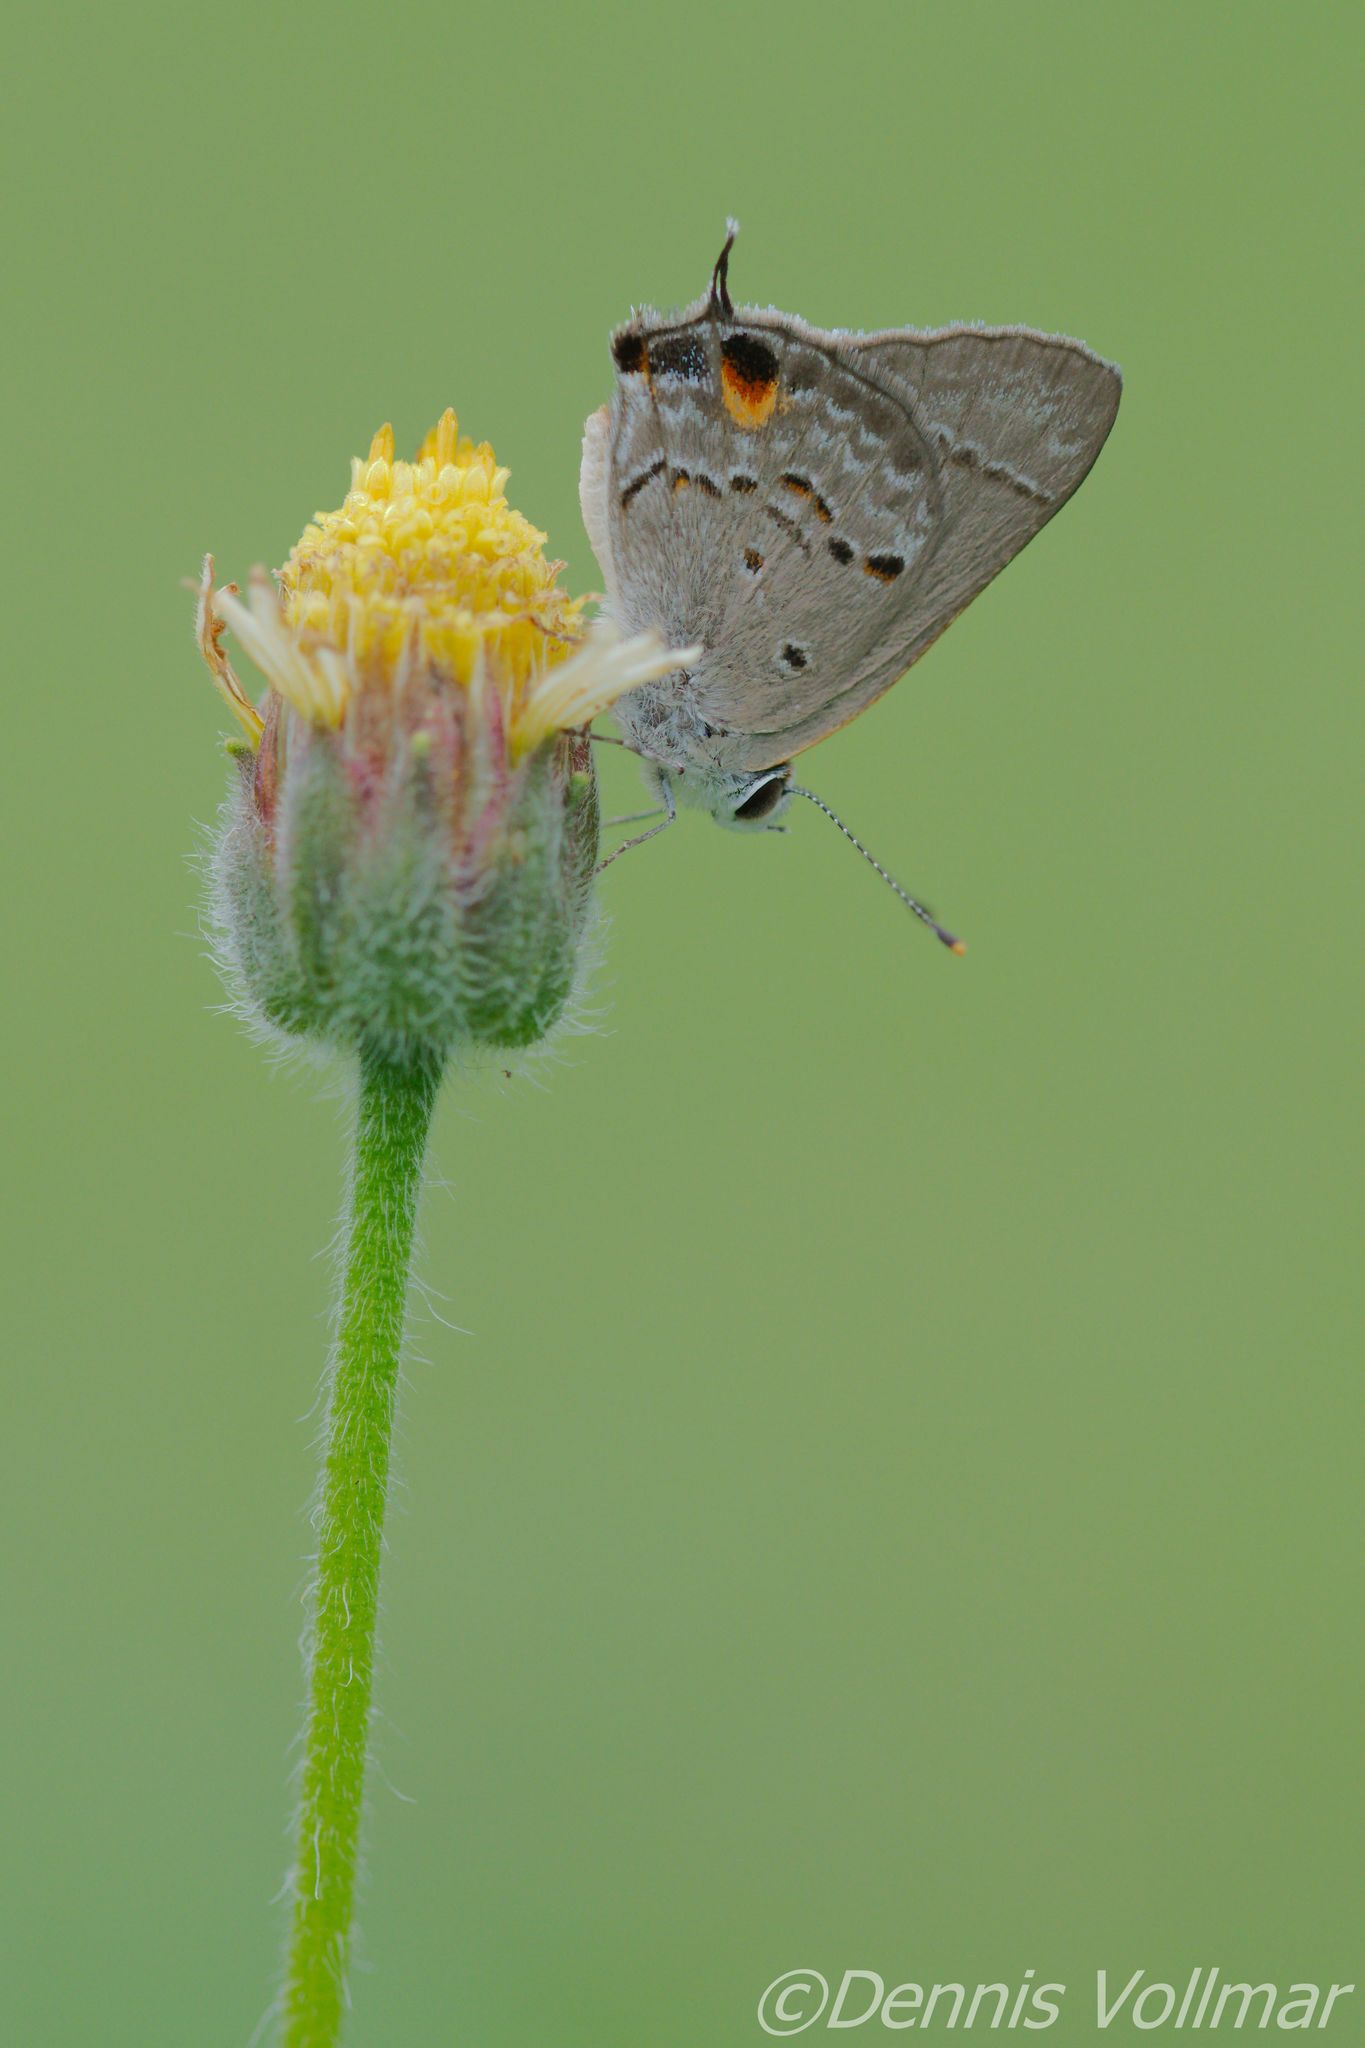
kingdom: Animalia
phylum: Arthropoda
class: Insecta
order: Lepidoptera
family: Lycaenidae
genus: Callicista
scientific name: Callicista columella
